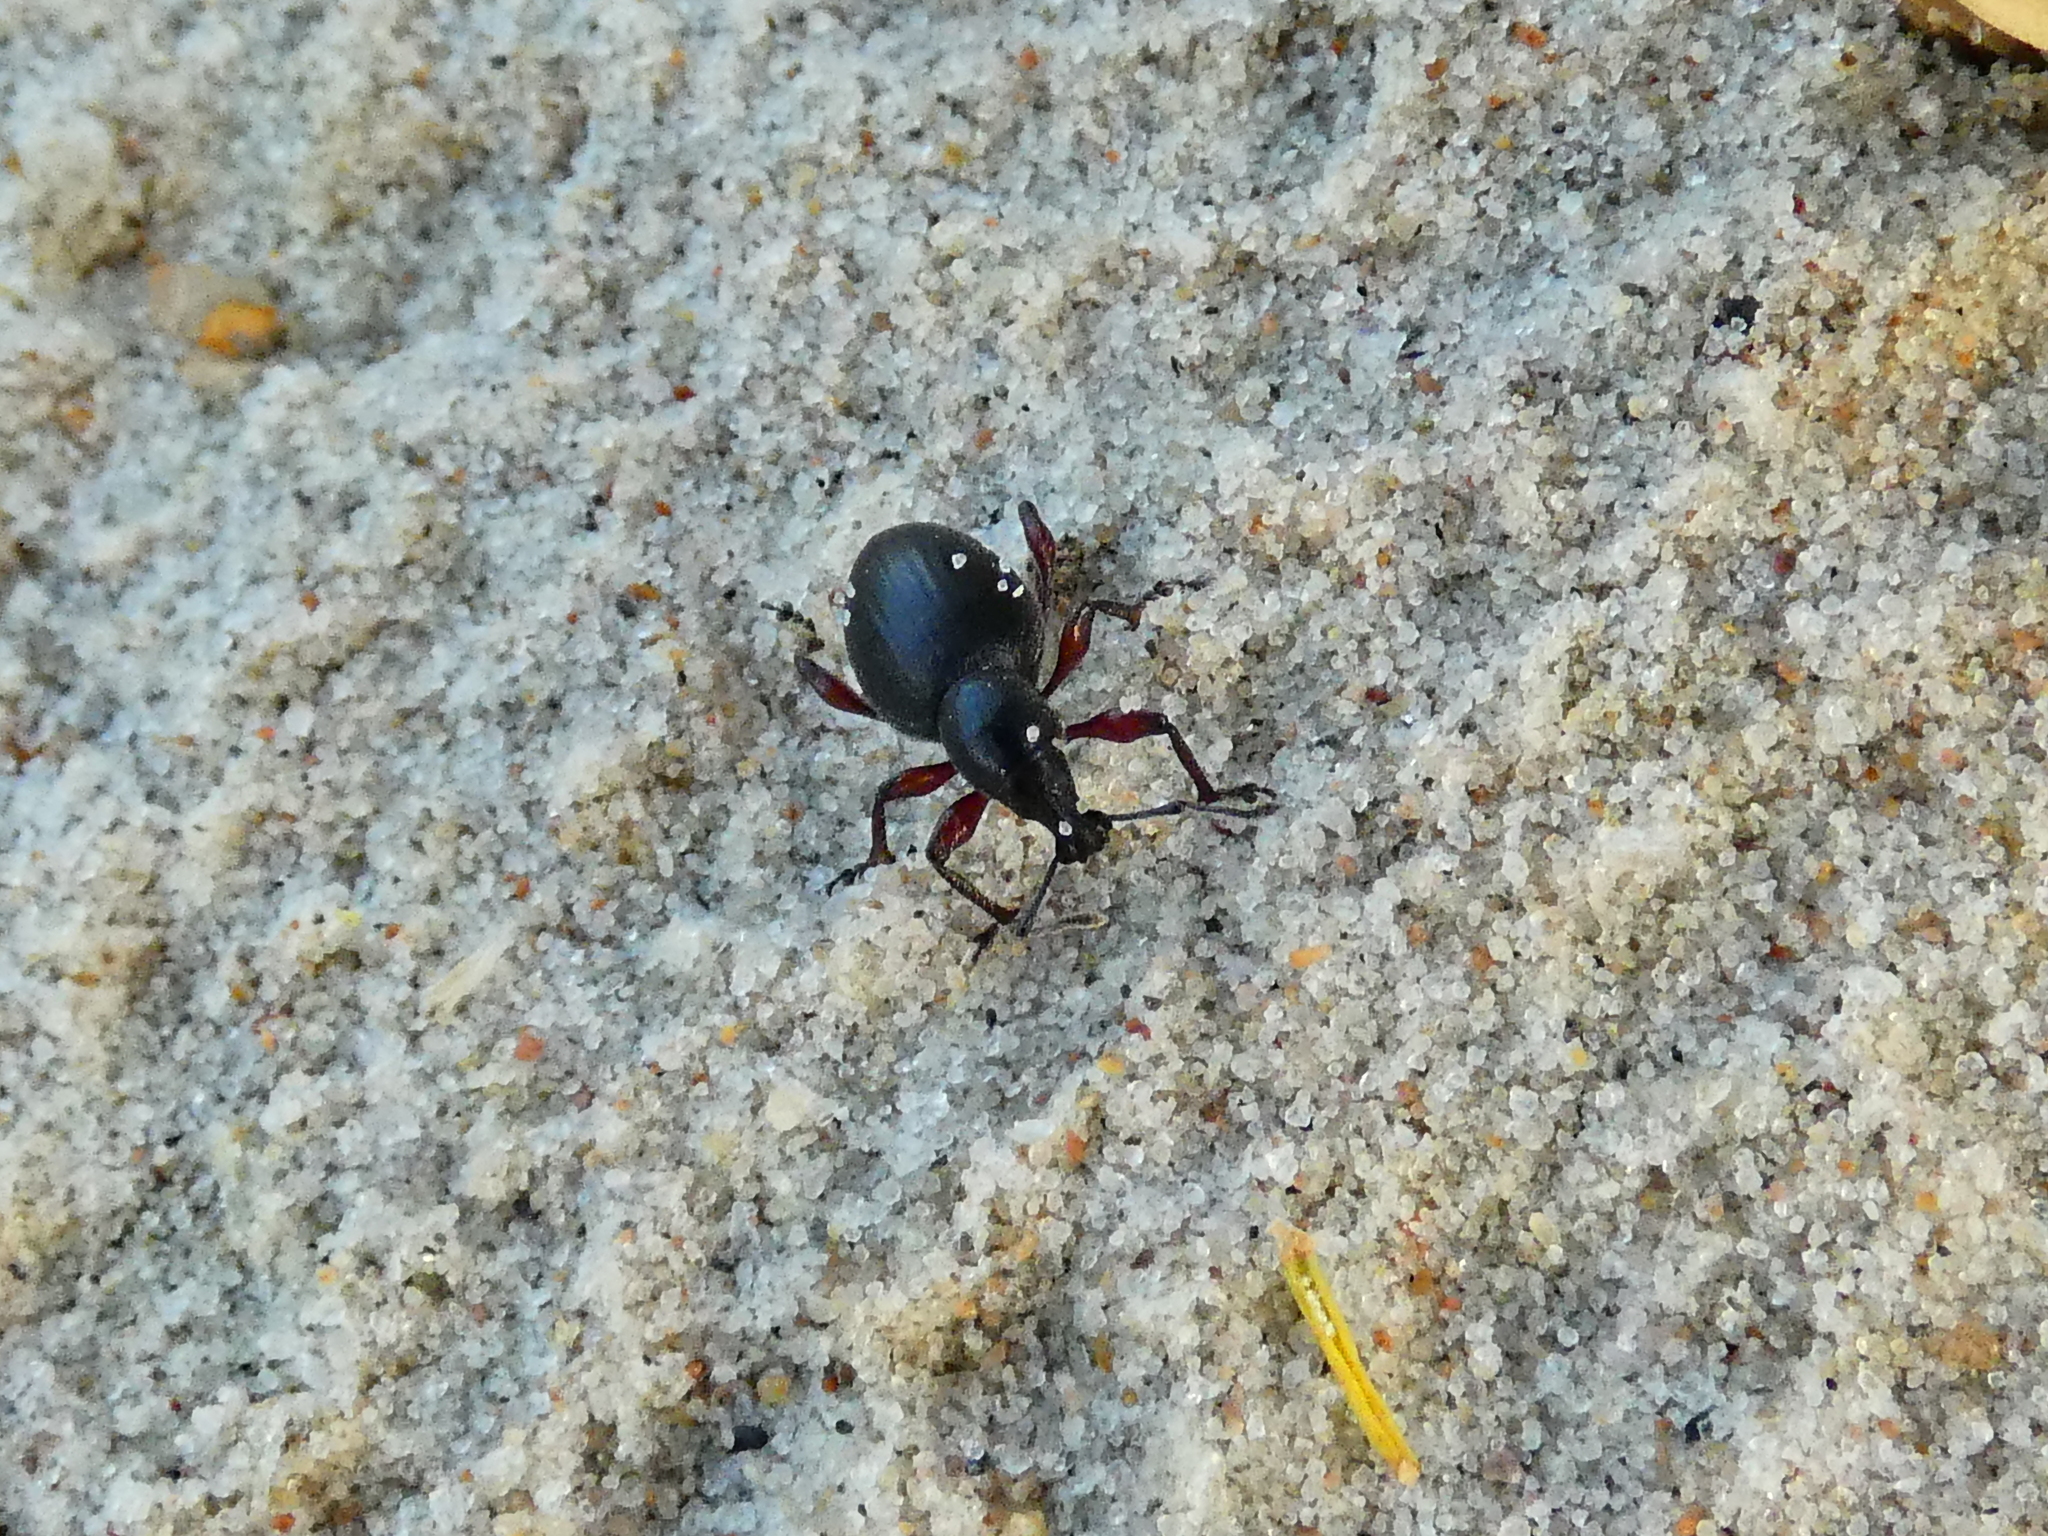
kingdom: Animalia
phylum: Arthropoda
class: Insecta
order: Coleoptera
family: Curculionidae
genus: Otiorhynchus
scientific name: Otiorhynchus atroapterus
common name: Black marram weevil
